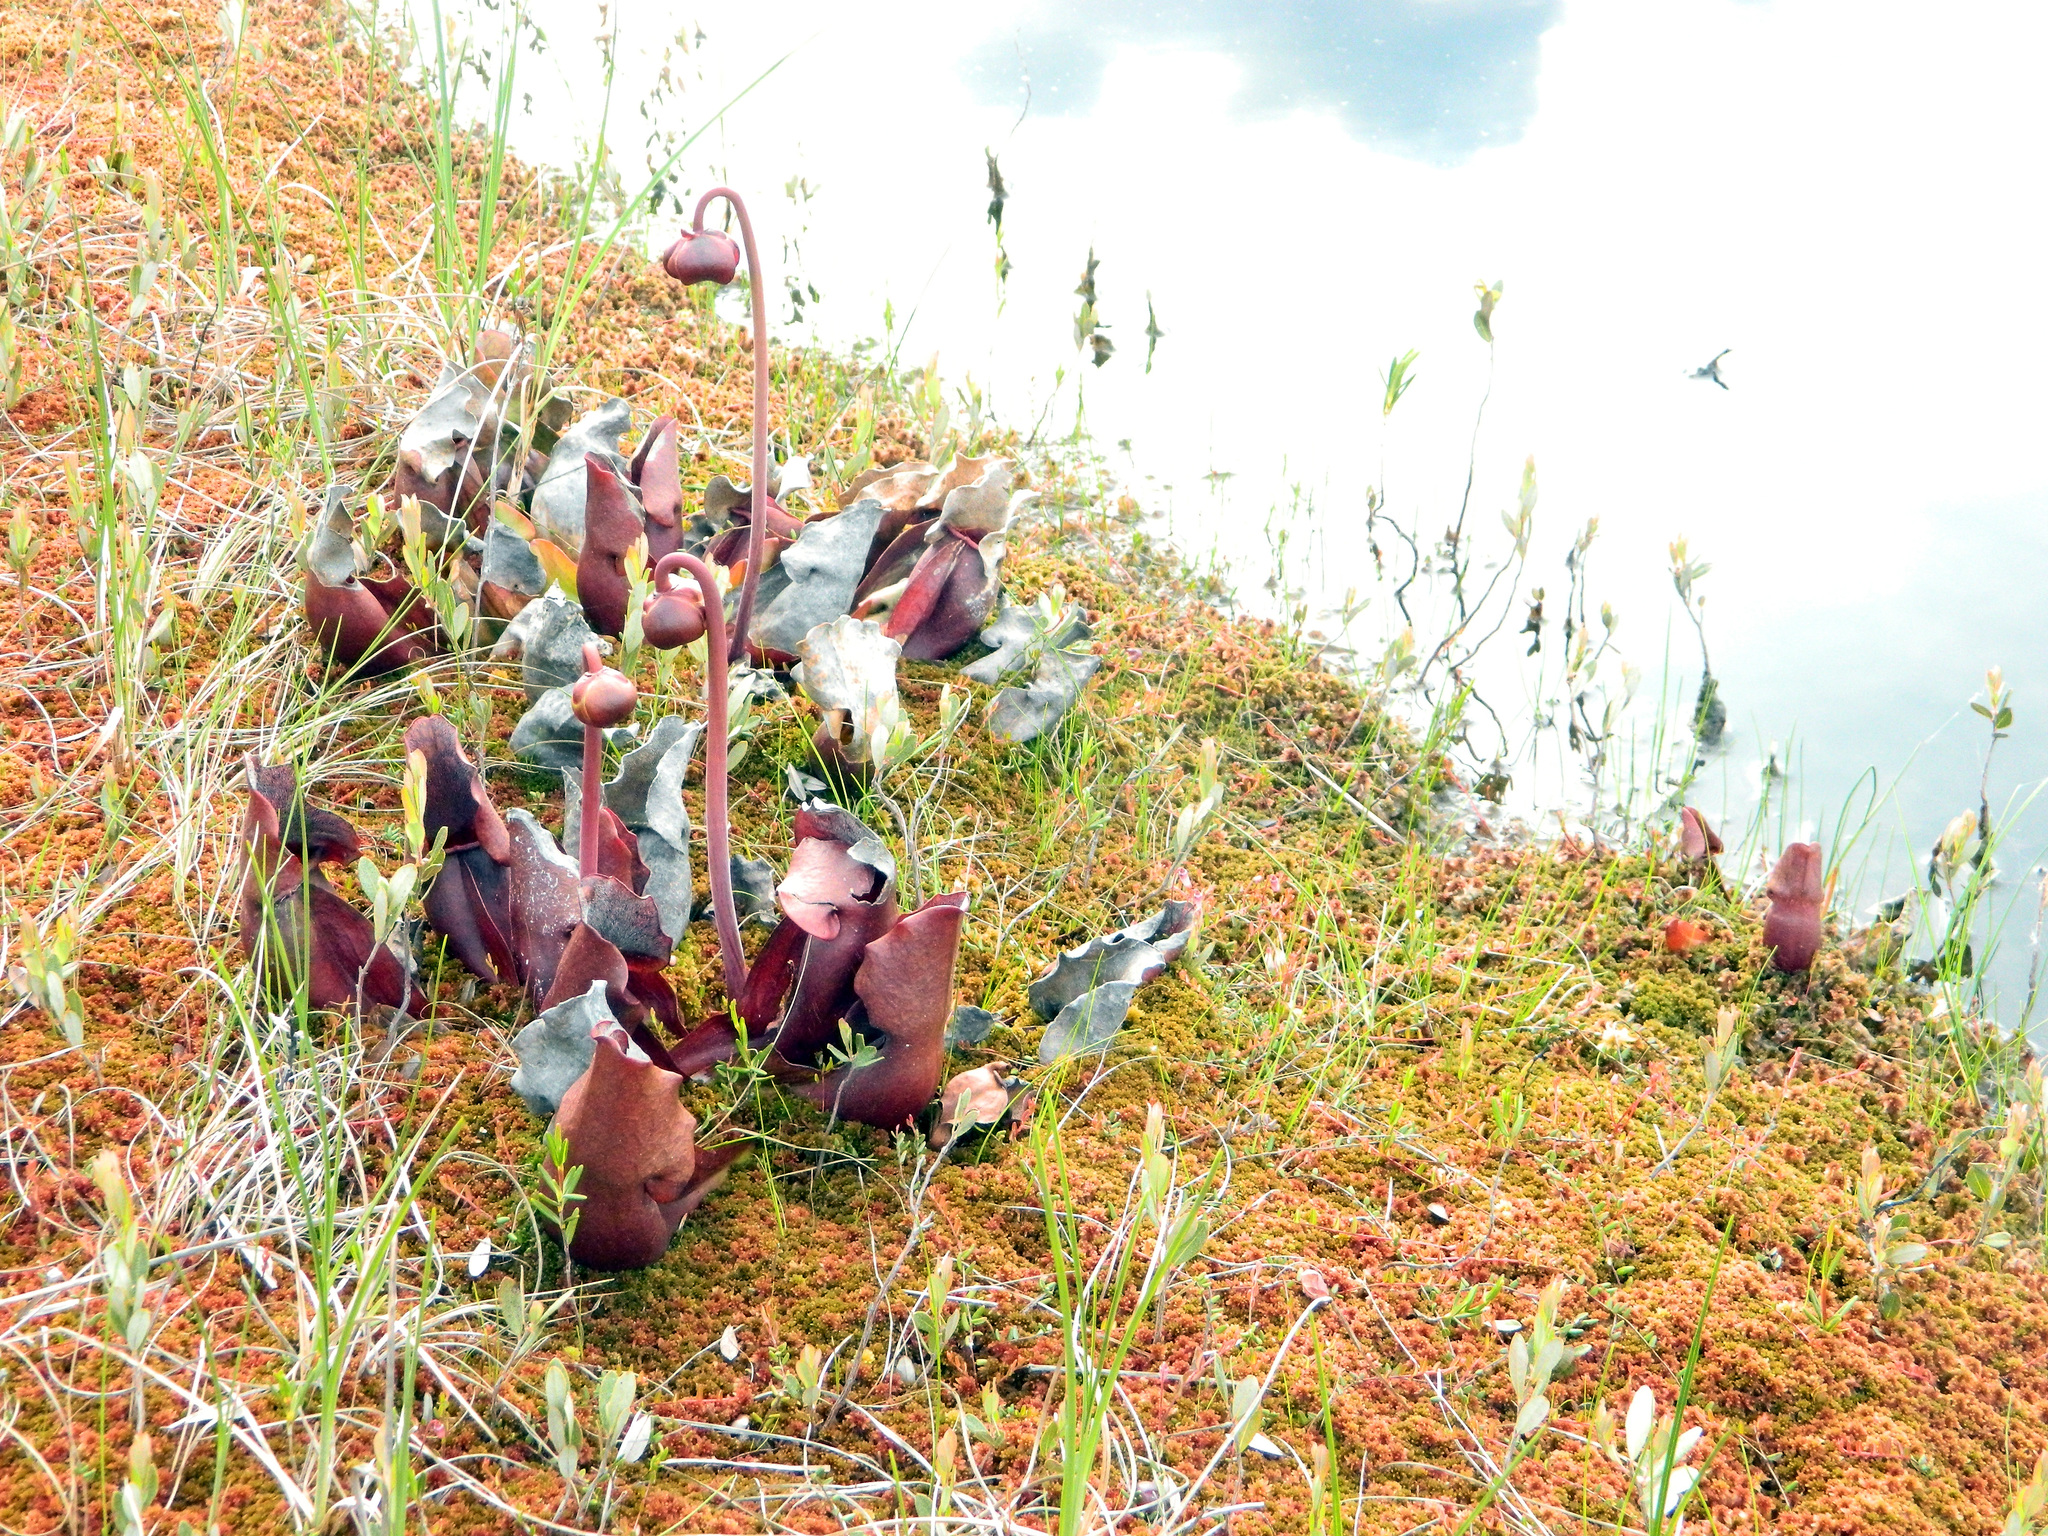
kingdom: Plantae
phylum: Tracheophyta
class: Magnoliopsida
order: Ericales
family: Sarraceniaceae
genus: Sarracenia
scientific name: Sarracenia purpurea
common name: Pitcherplant
